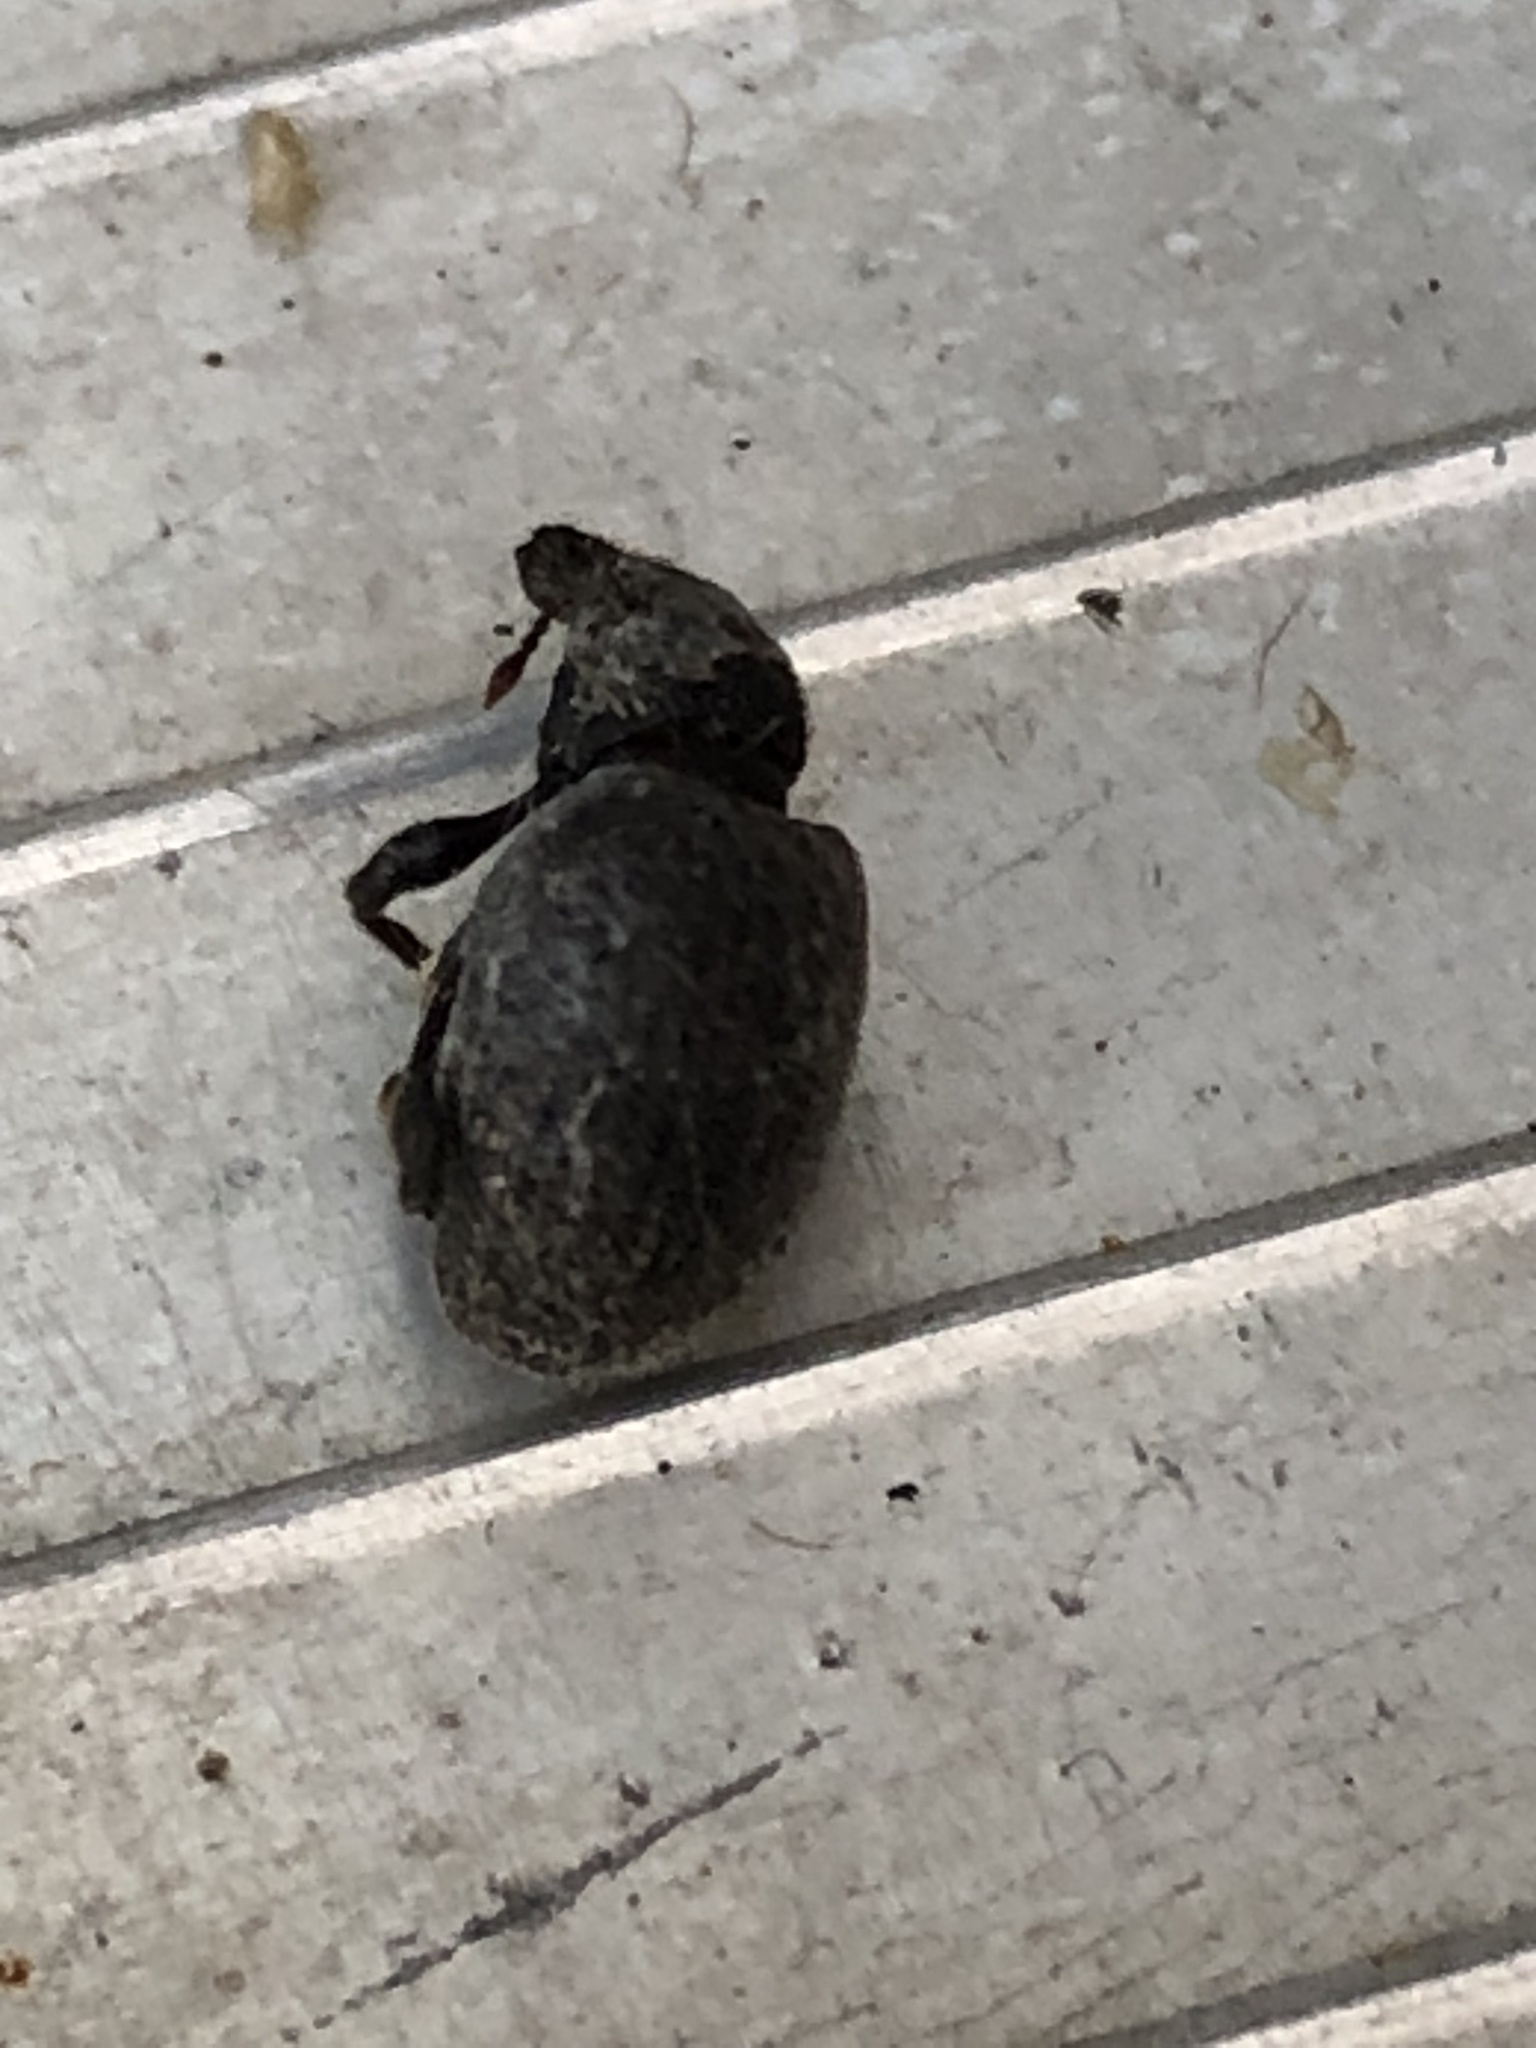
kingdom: Animalia
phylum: Arthropoda
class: Insecta
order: Coleoptera
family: Curculionidae
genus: Otiorhynchus
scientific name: Otiorhynchus rugosostriatus
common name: Weevil
